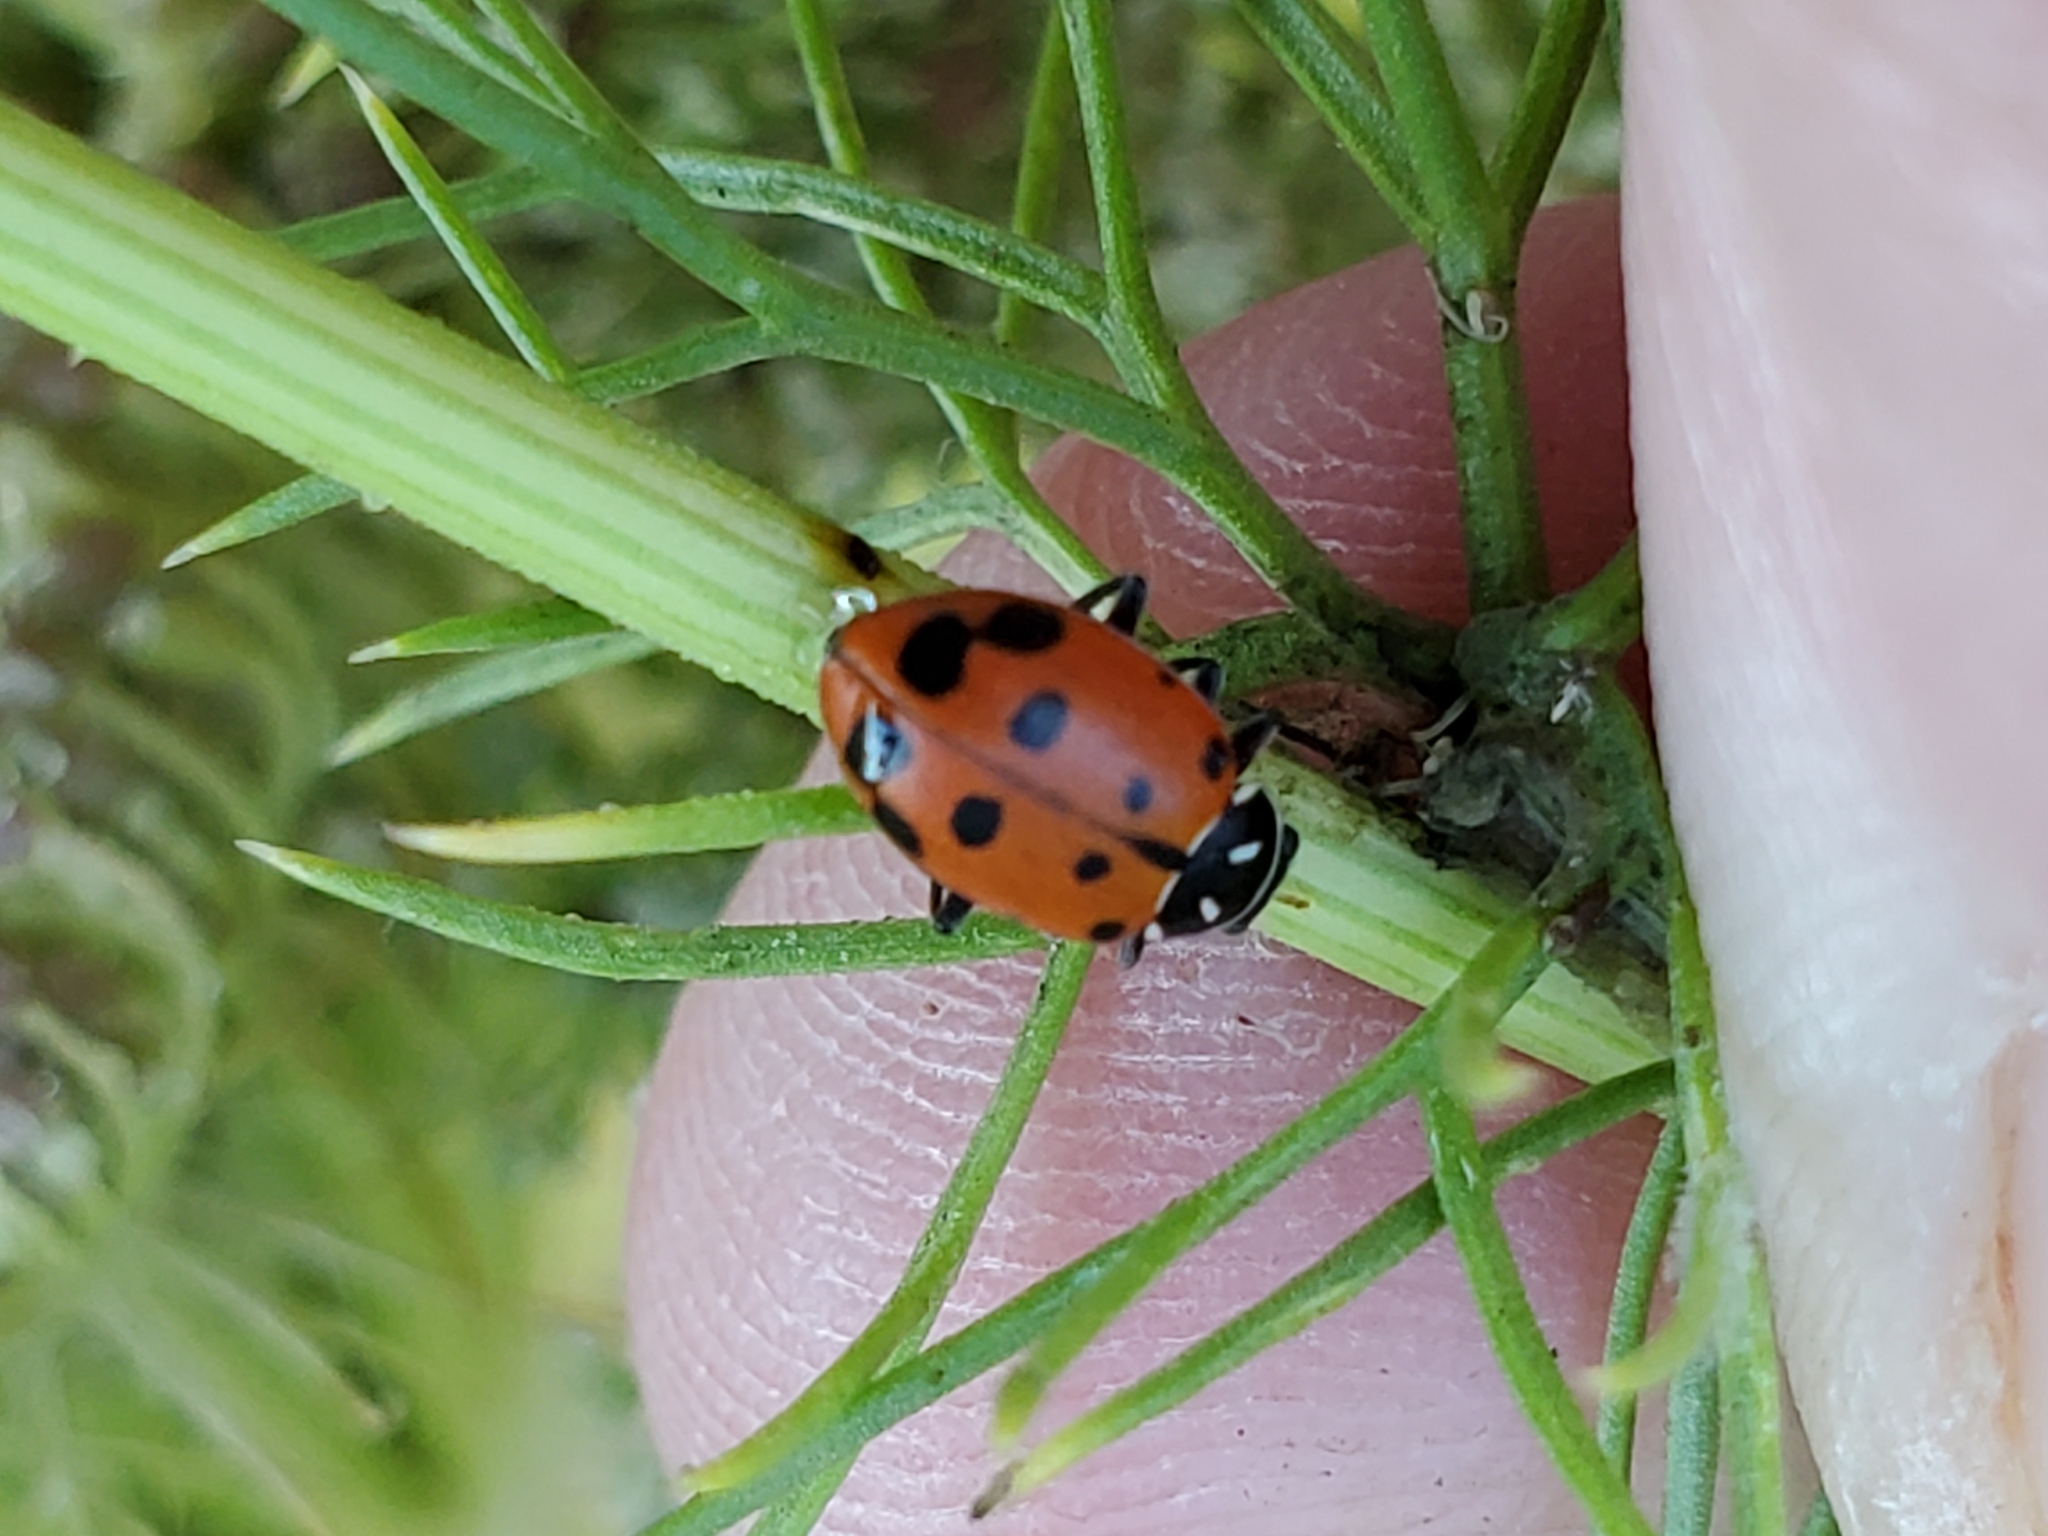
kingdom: Animalia
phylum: Arthropoda
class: Insecta
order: Coleoptera
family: Coccinellidae
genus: Hippodamia
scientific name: Hippodamia convergens
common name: Convergent lady beetle
